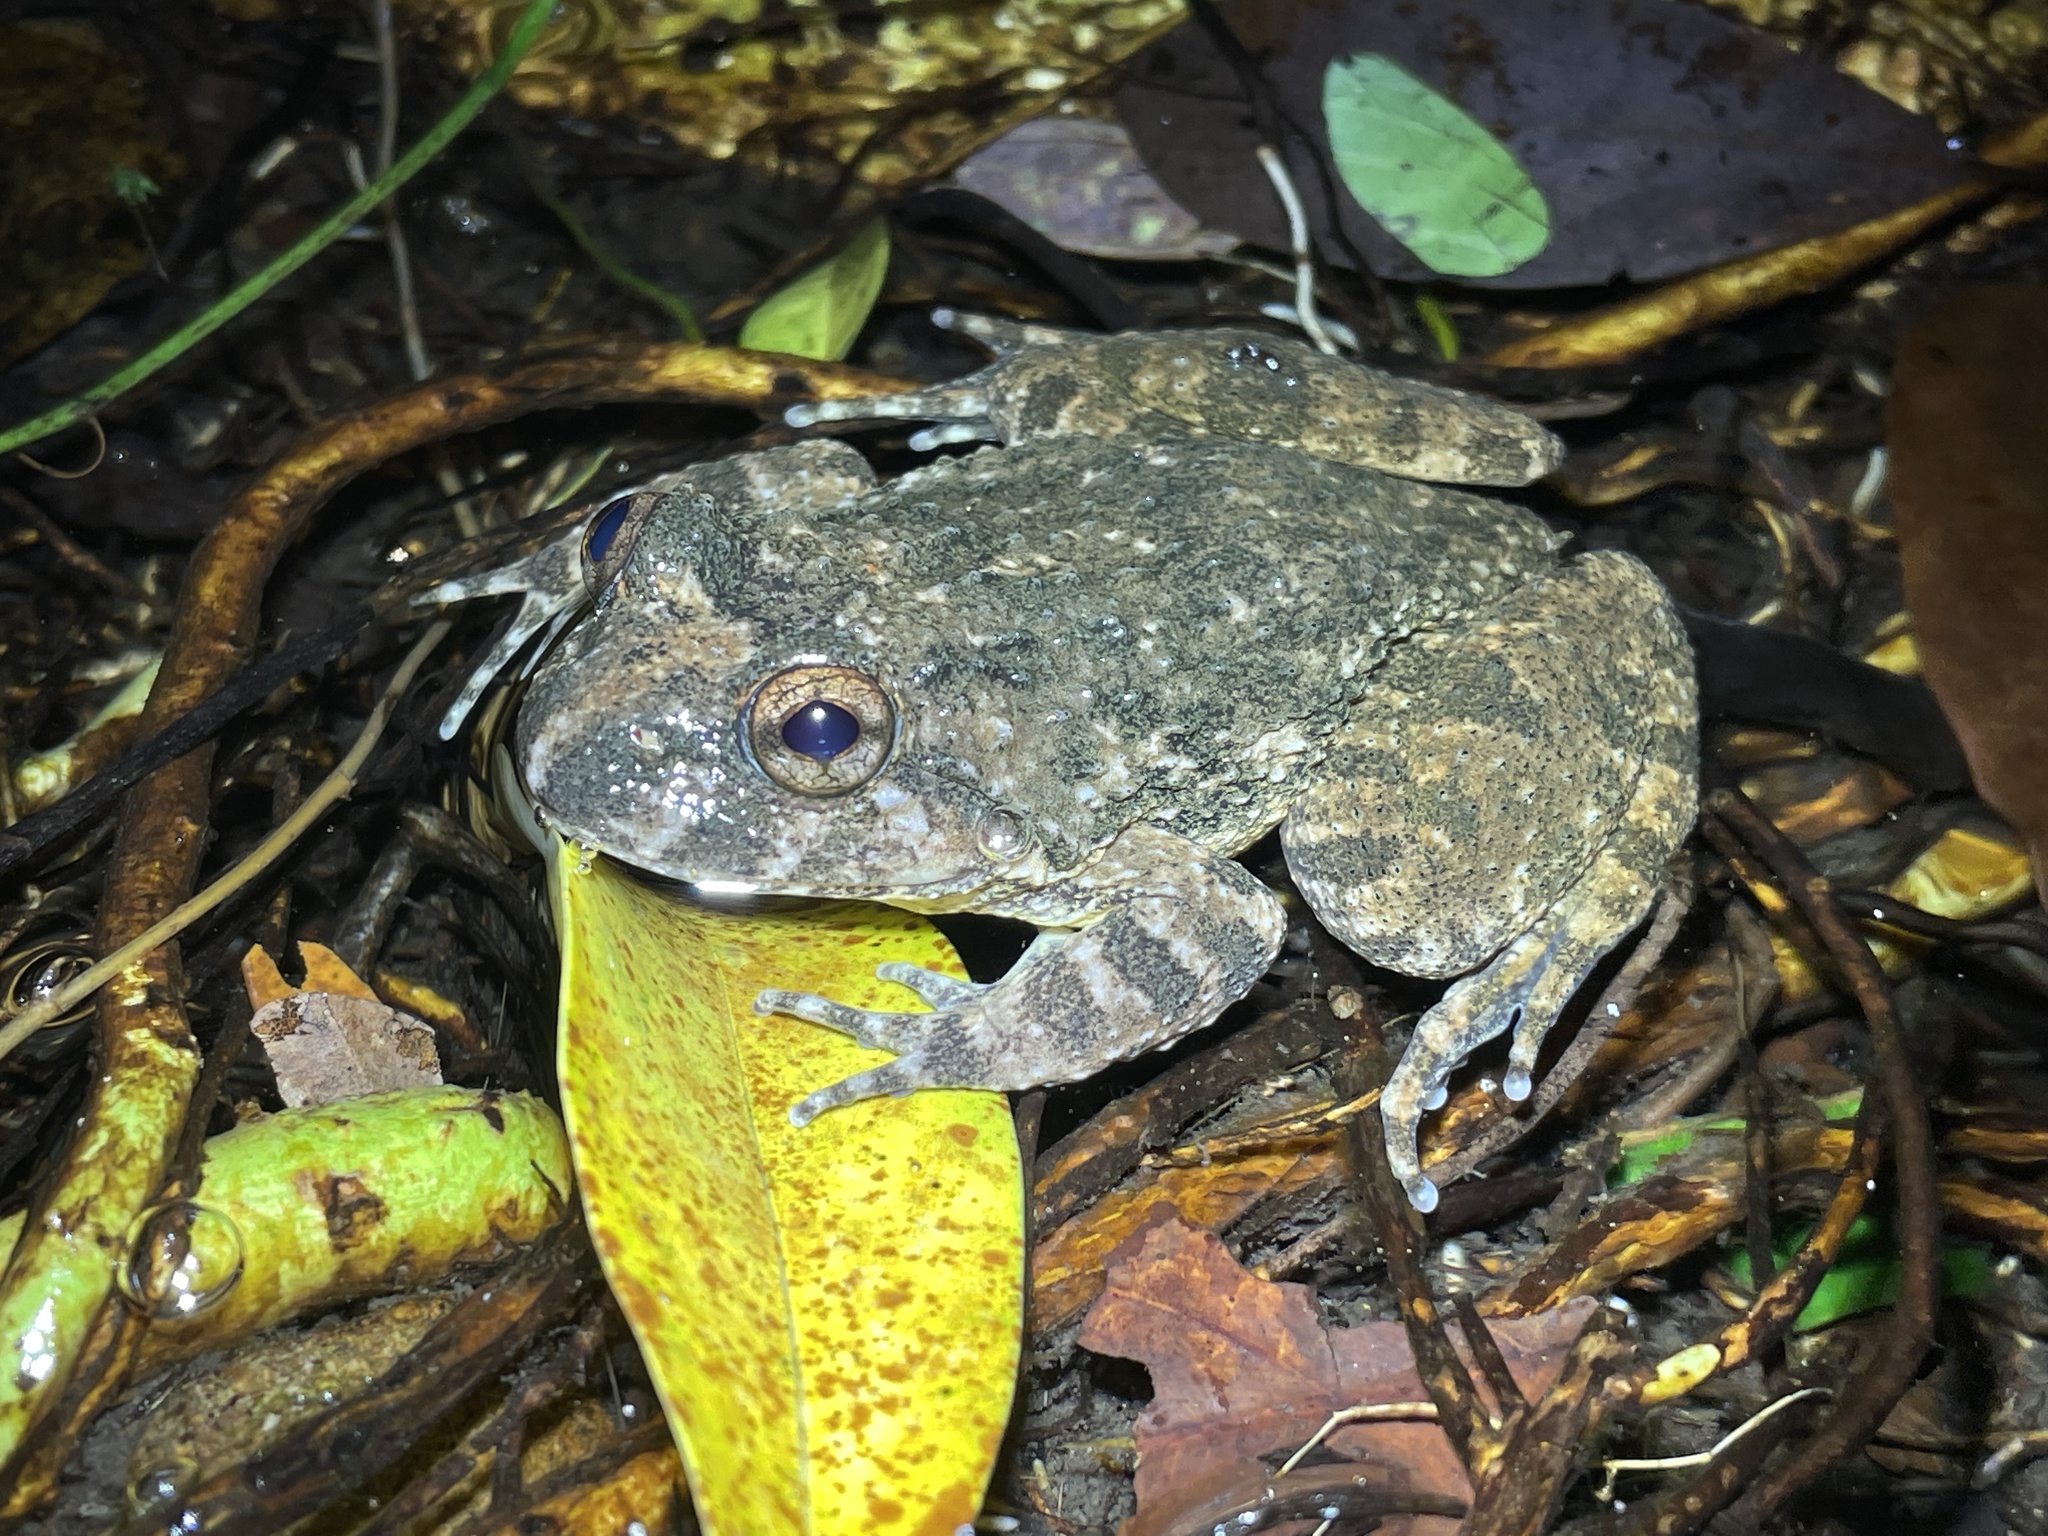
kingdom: Animalia
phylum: Chordata
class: Amphibia
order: Anura
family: Dicroglossidae
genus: Quasipaa
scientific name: Quasipaa exilispinosa
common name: Hong kong paa frog
